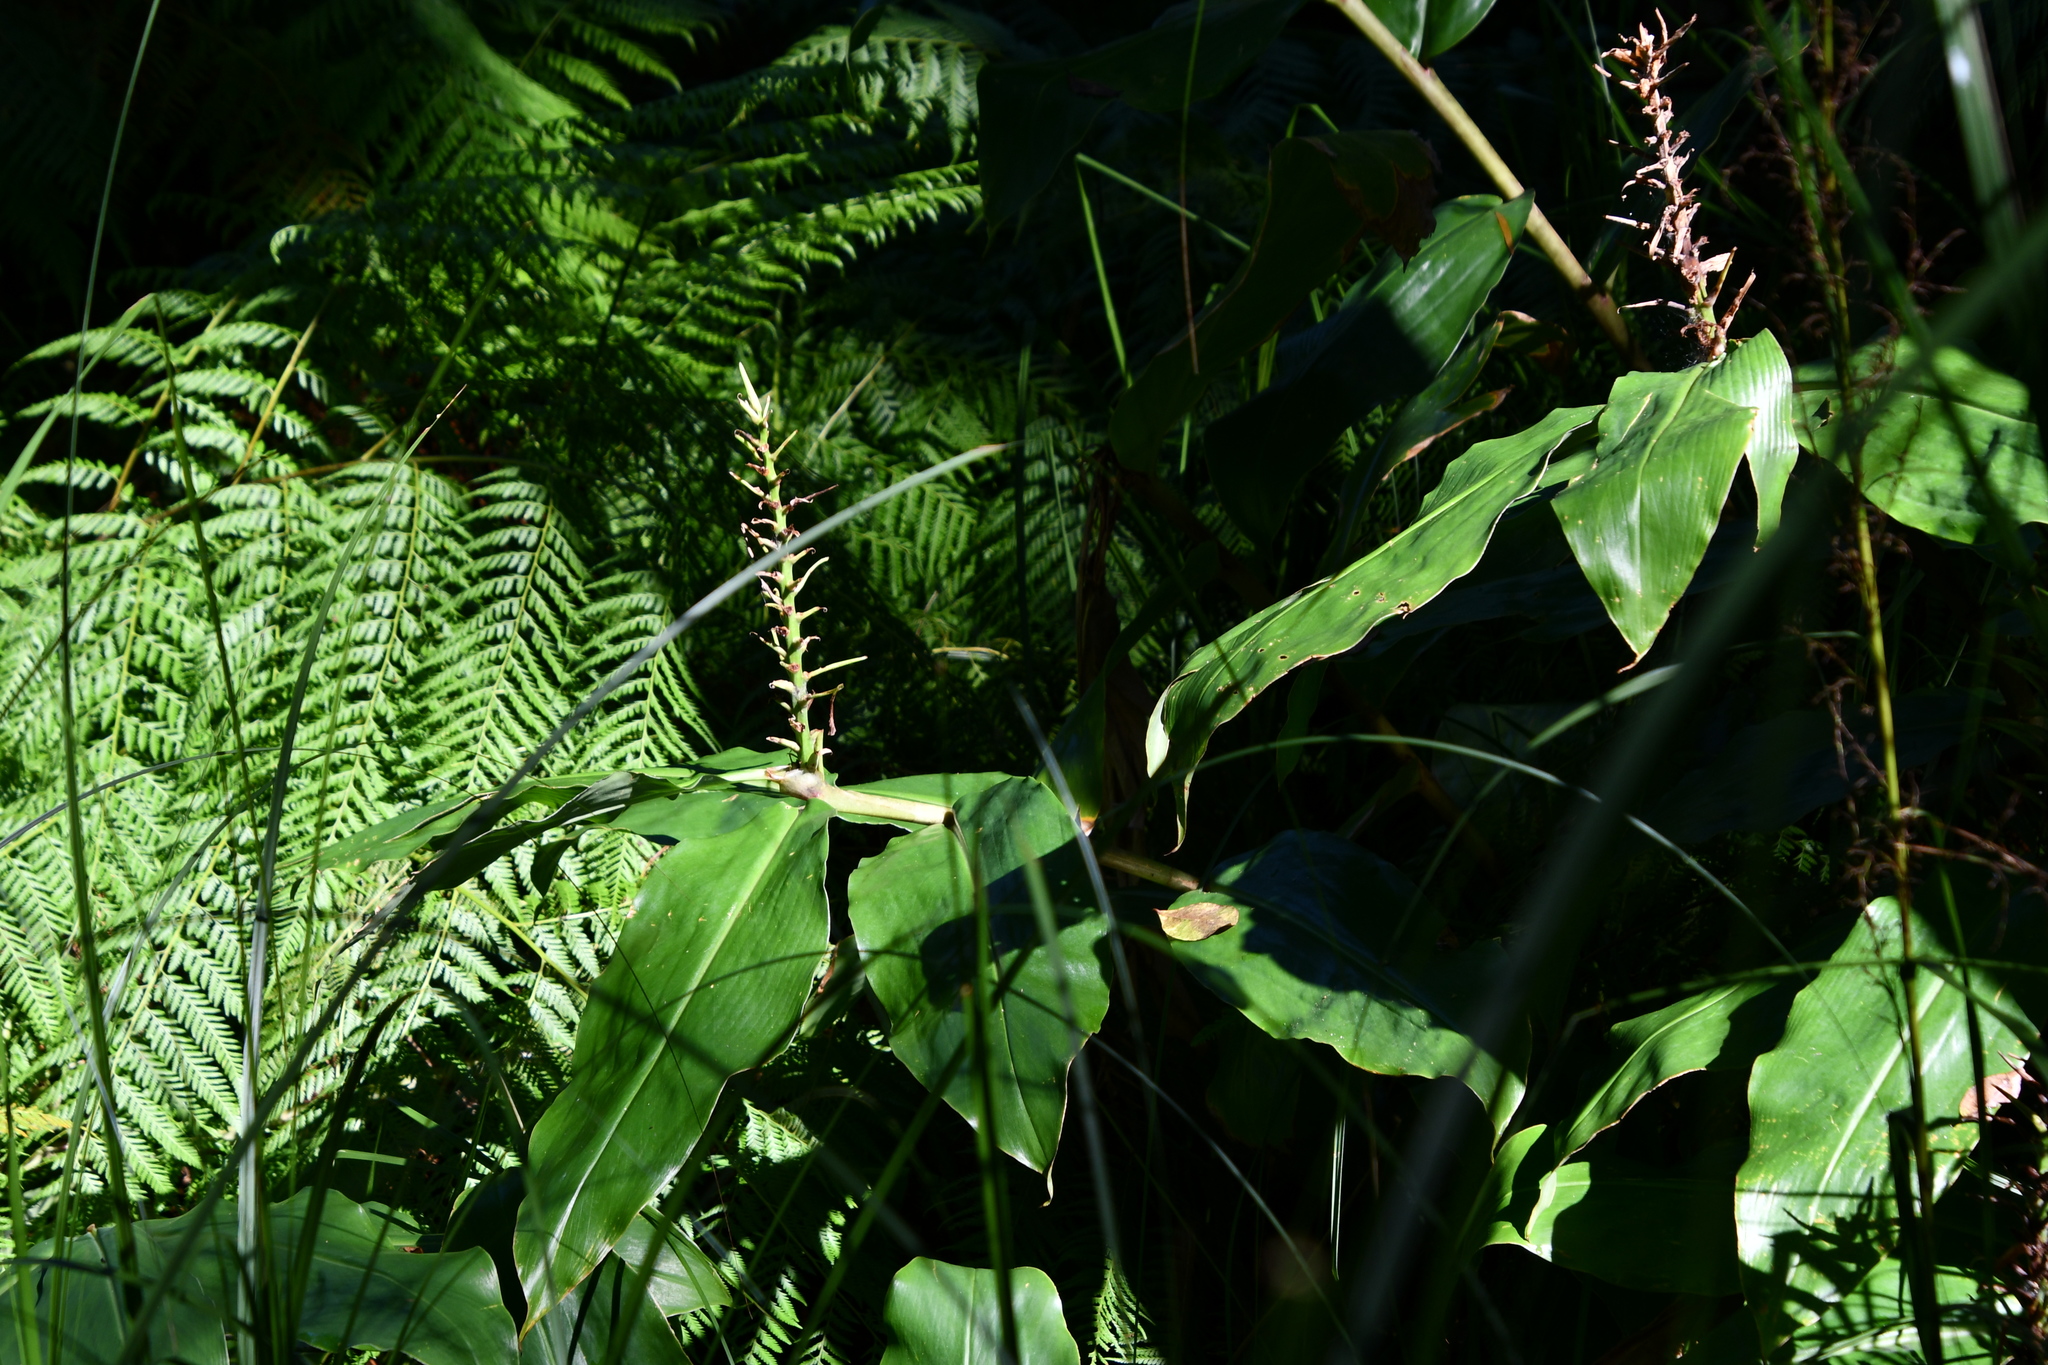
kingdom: Plantae
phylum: Tracheophyta
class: Liliopsida
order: Zingiberales
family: Zingiberaceae
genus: Hedychium
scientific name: Hedychium gardnerianum
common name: Himalayan ginger
